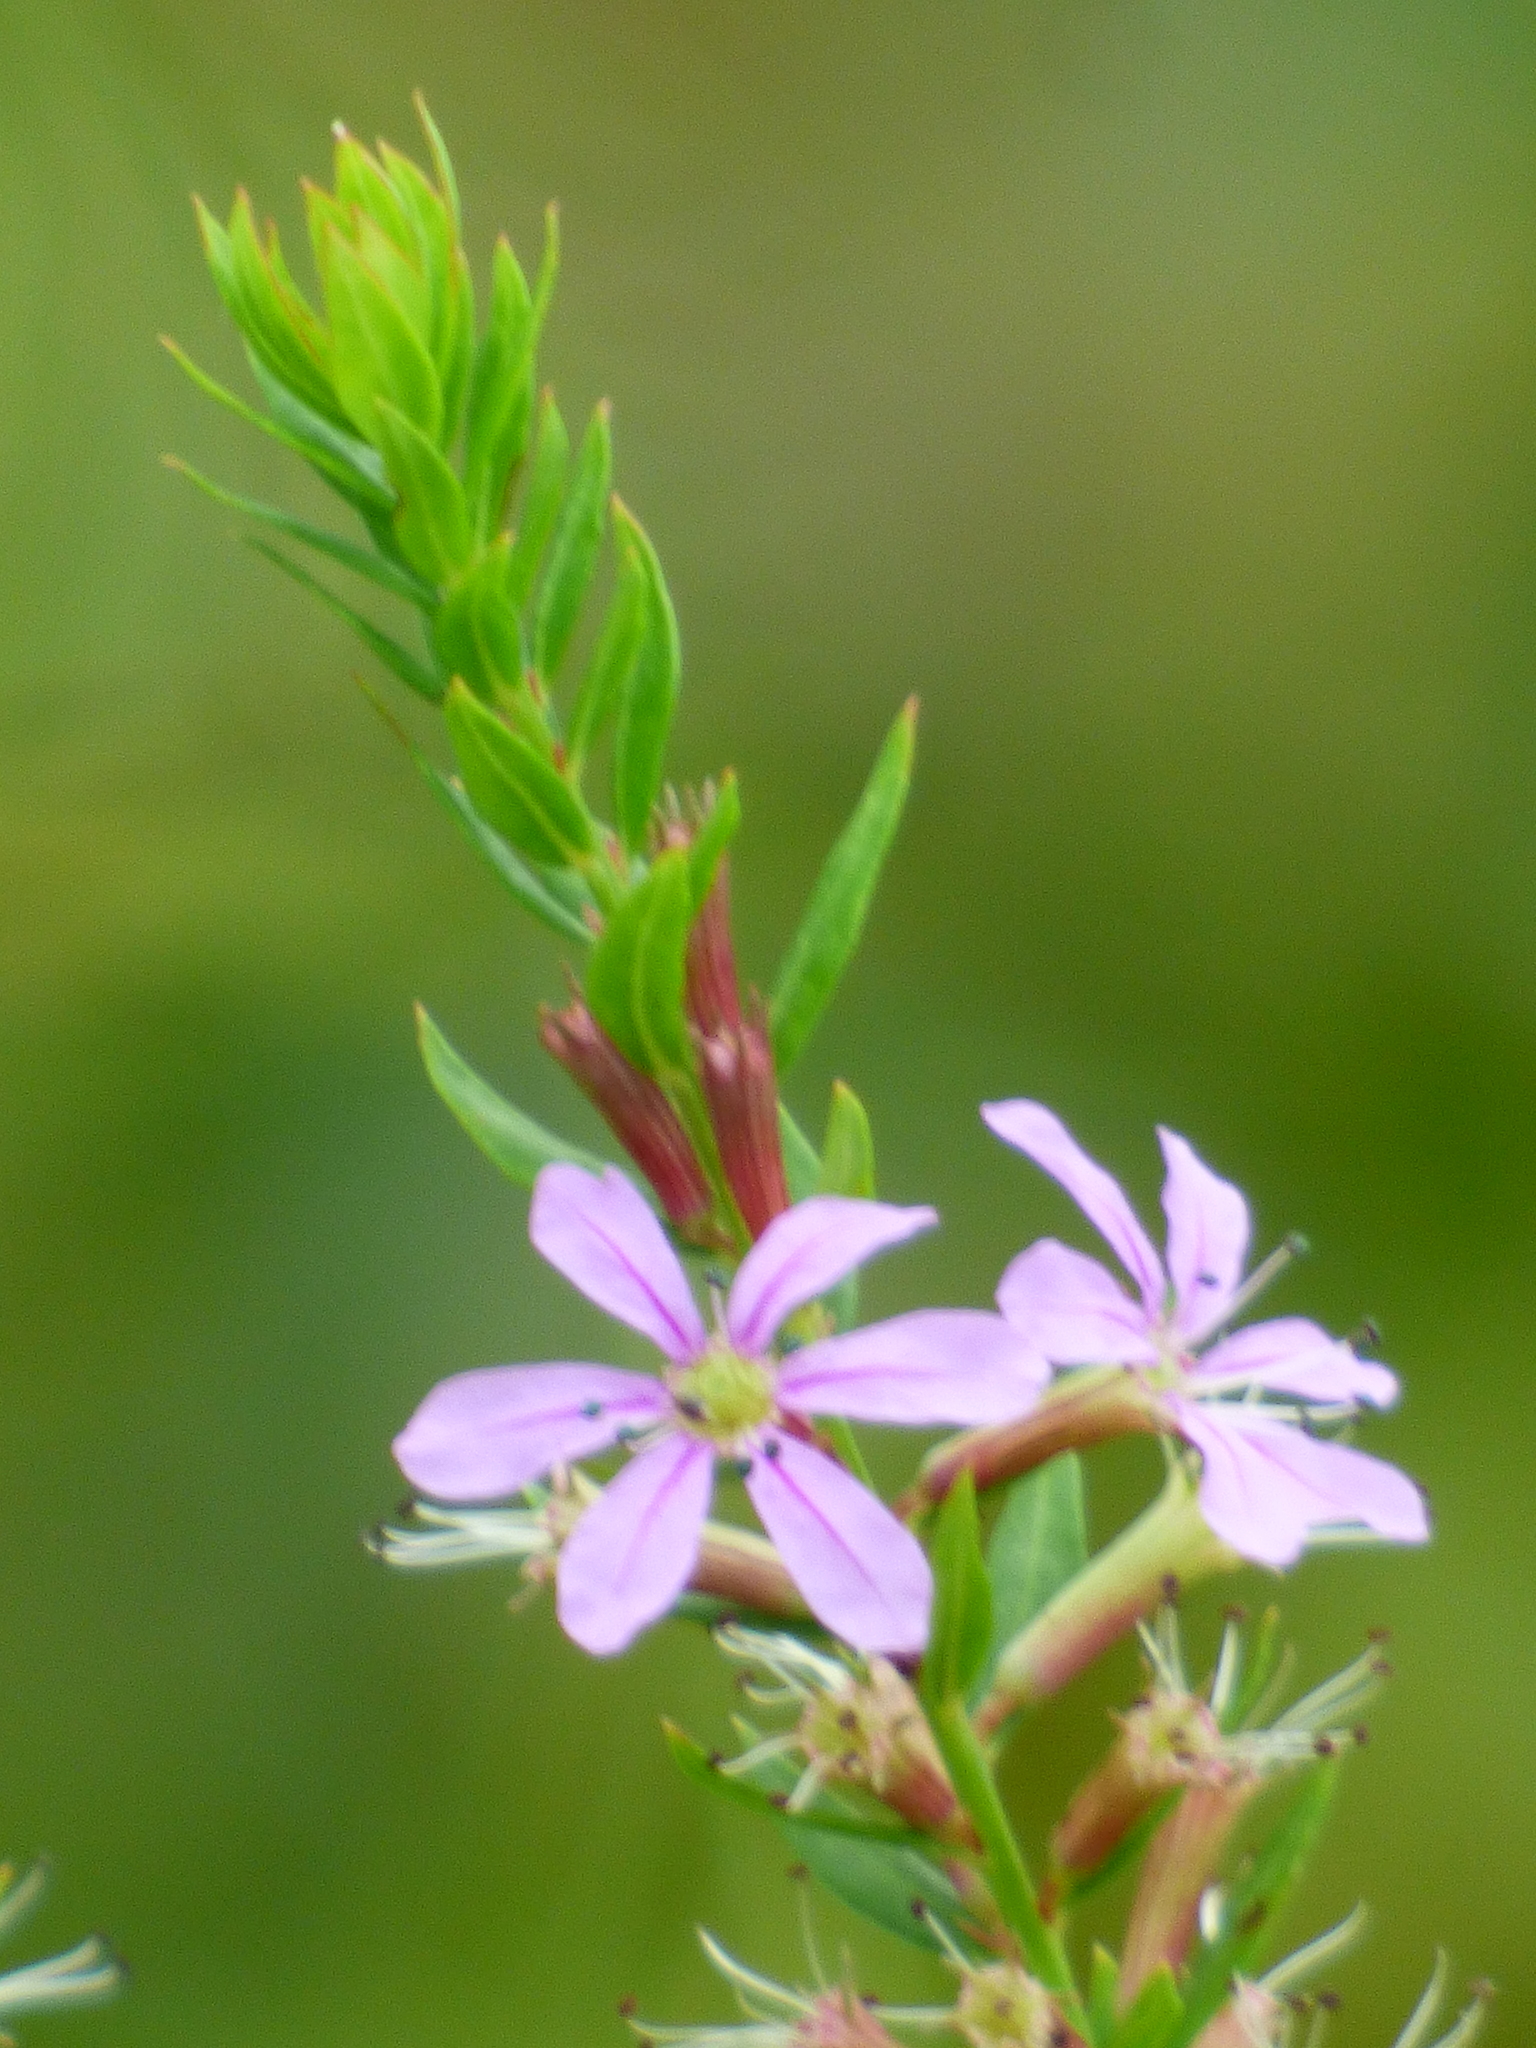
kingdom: Plantae
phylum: Tracheophyta
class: Magnoliopsida
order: Myrtales
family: Lythraceae
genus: Lythrum
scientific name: Lythrum alatum
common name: Winged loosestrife
